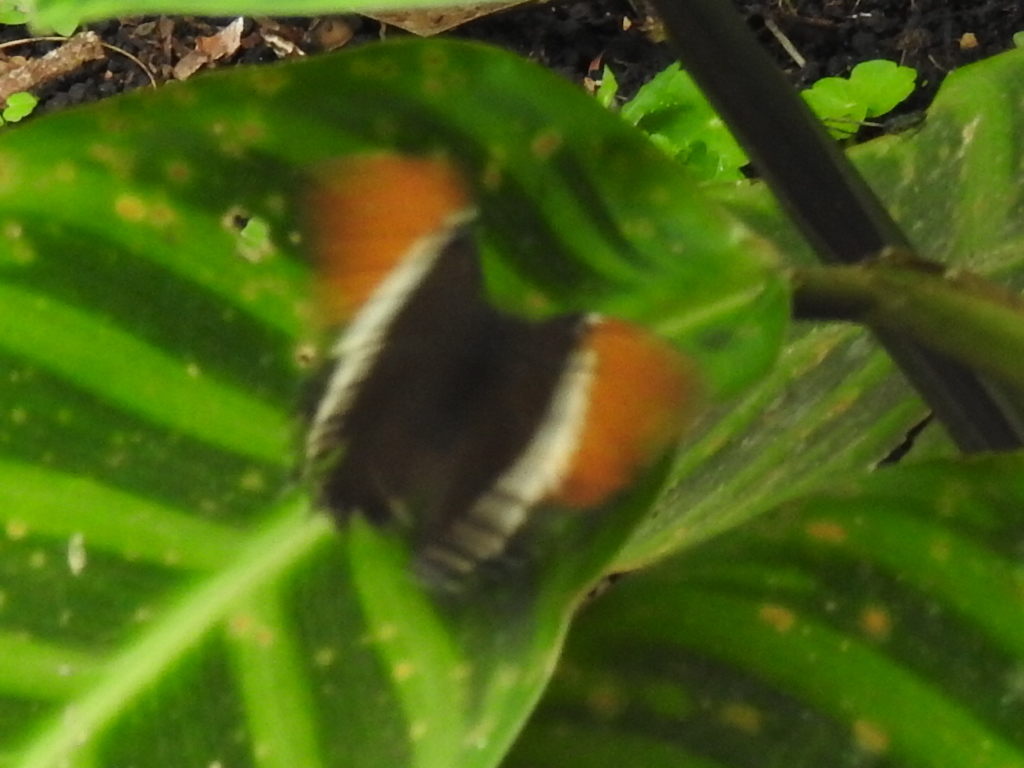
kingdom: Animalia
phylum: Arthropoda
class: Insecta
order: Lepidoptera
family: Nymphalidae
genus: Siproeta
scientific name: Siproeta epaphus
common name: Rusty-tipped page
